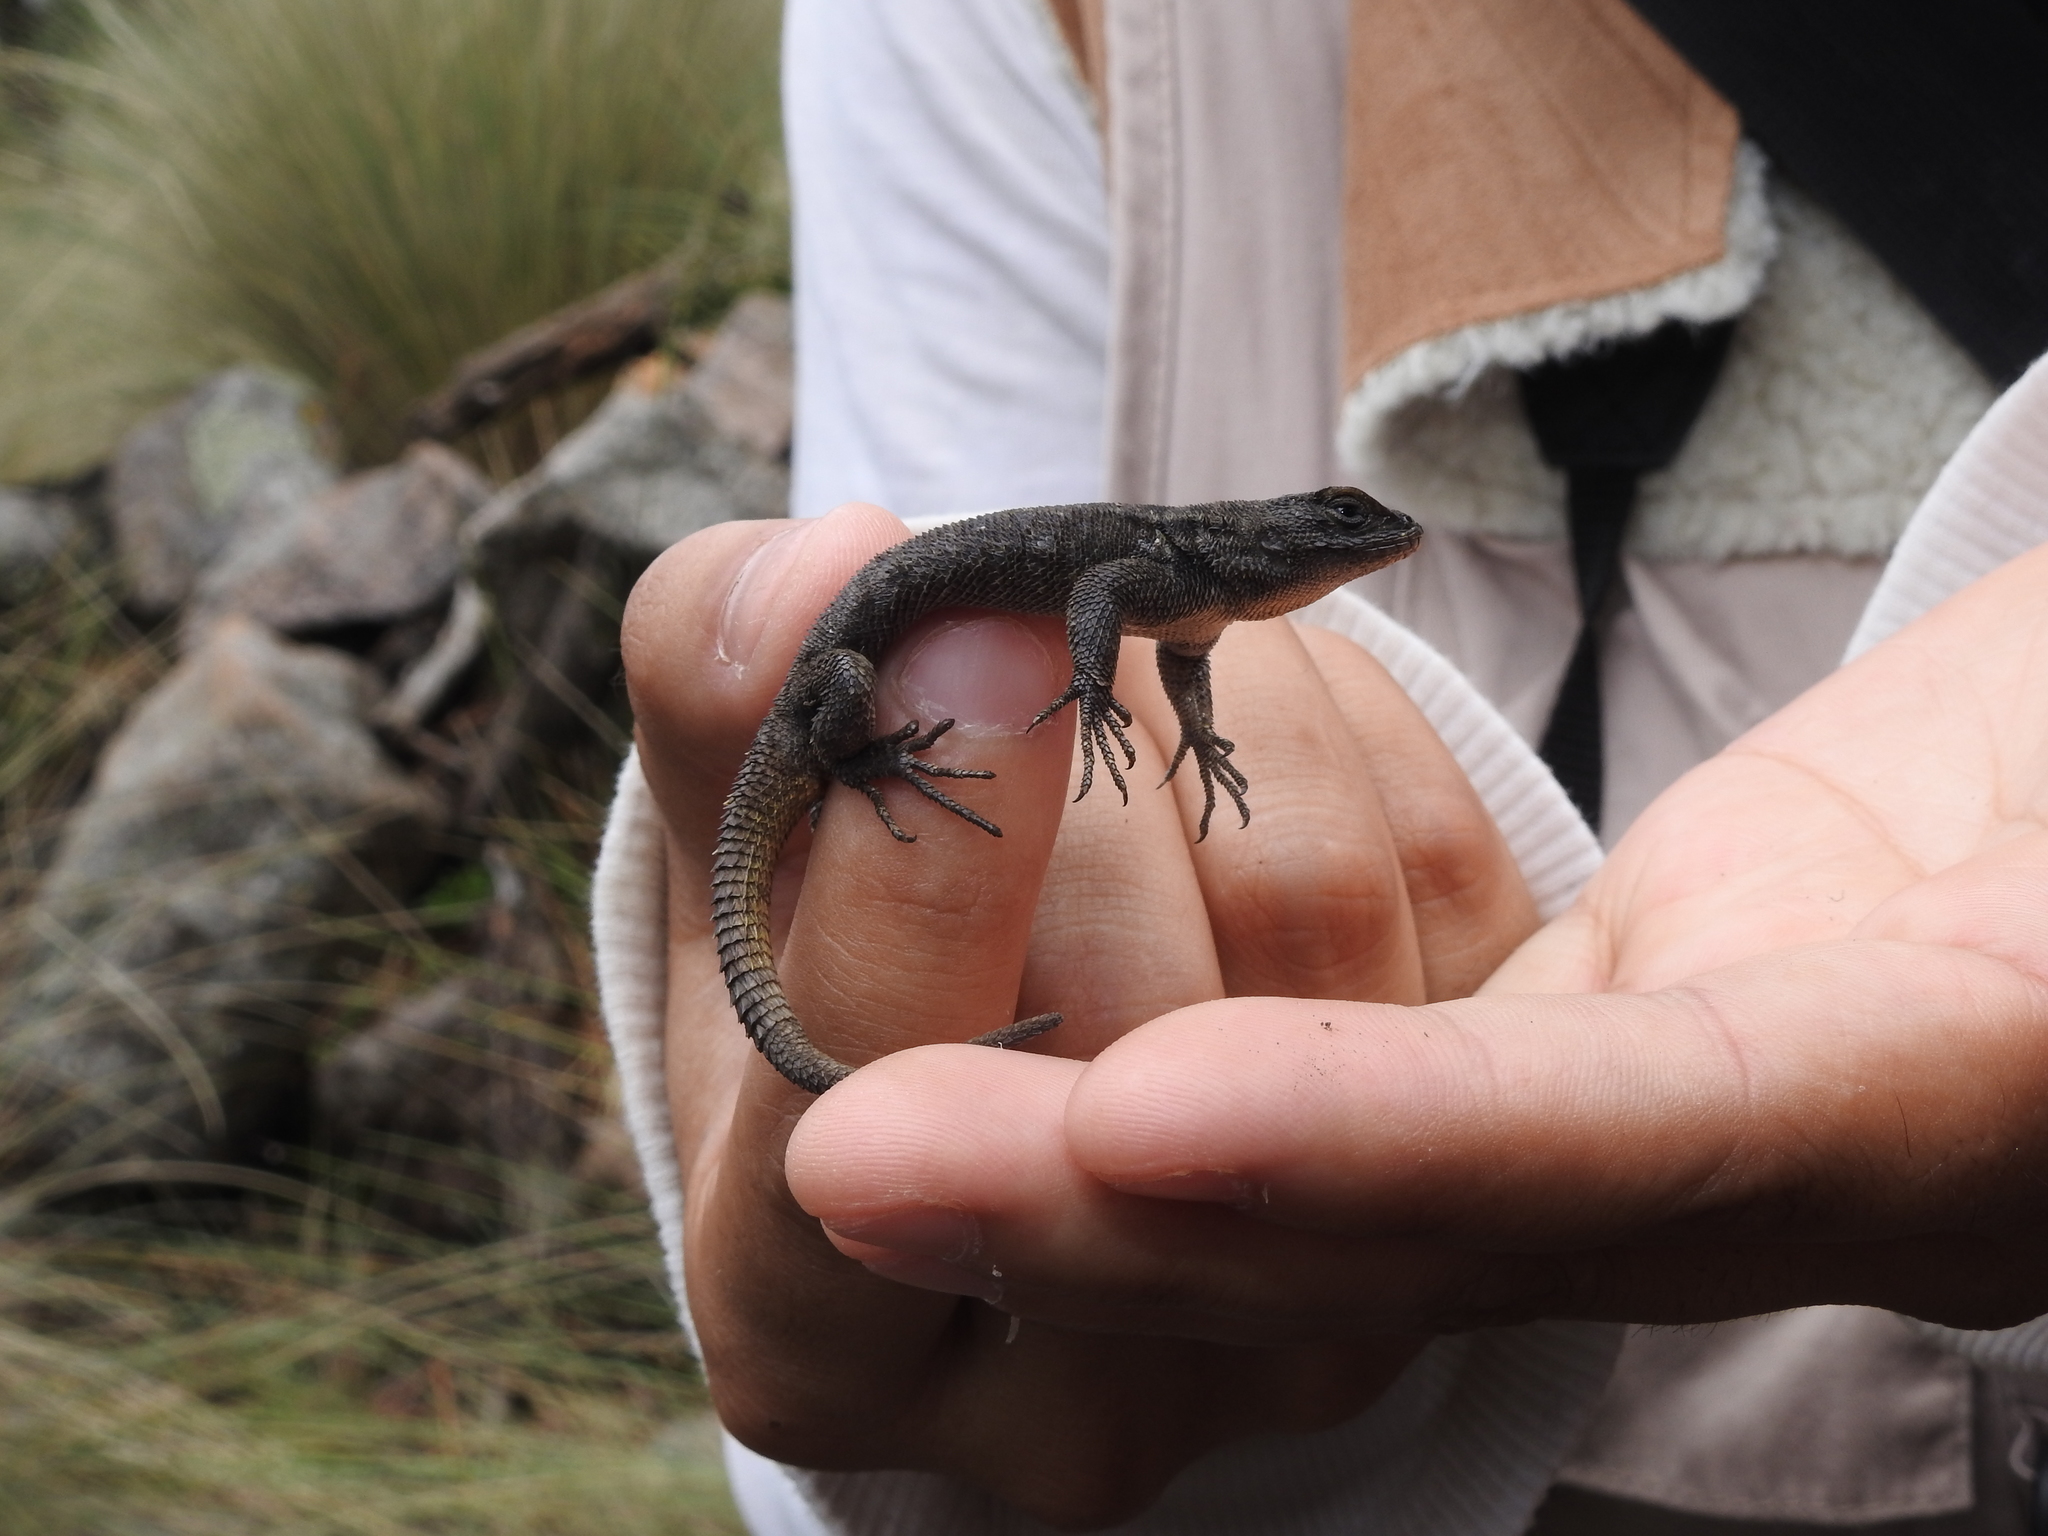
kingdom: Animalia
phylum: Chordata
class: Squamata
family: Phrynosomatidae
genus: Sceloporus
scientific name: Sceloporus grammicus
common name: Mesquite lizard
